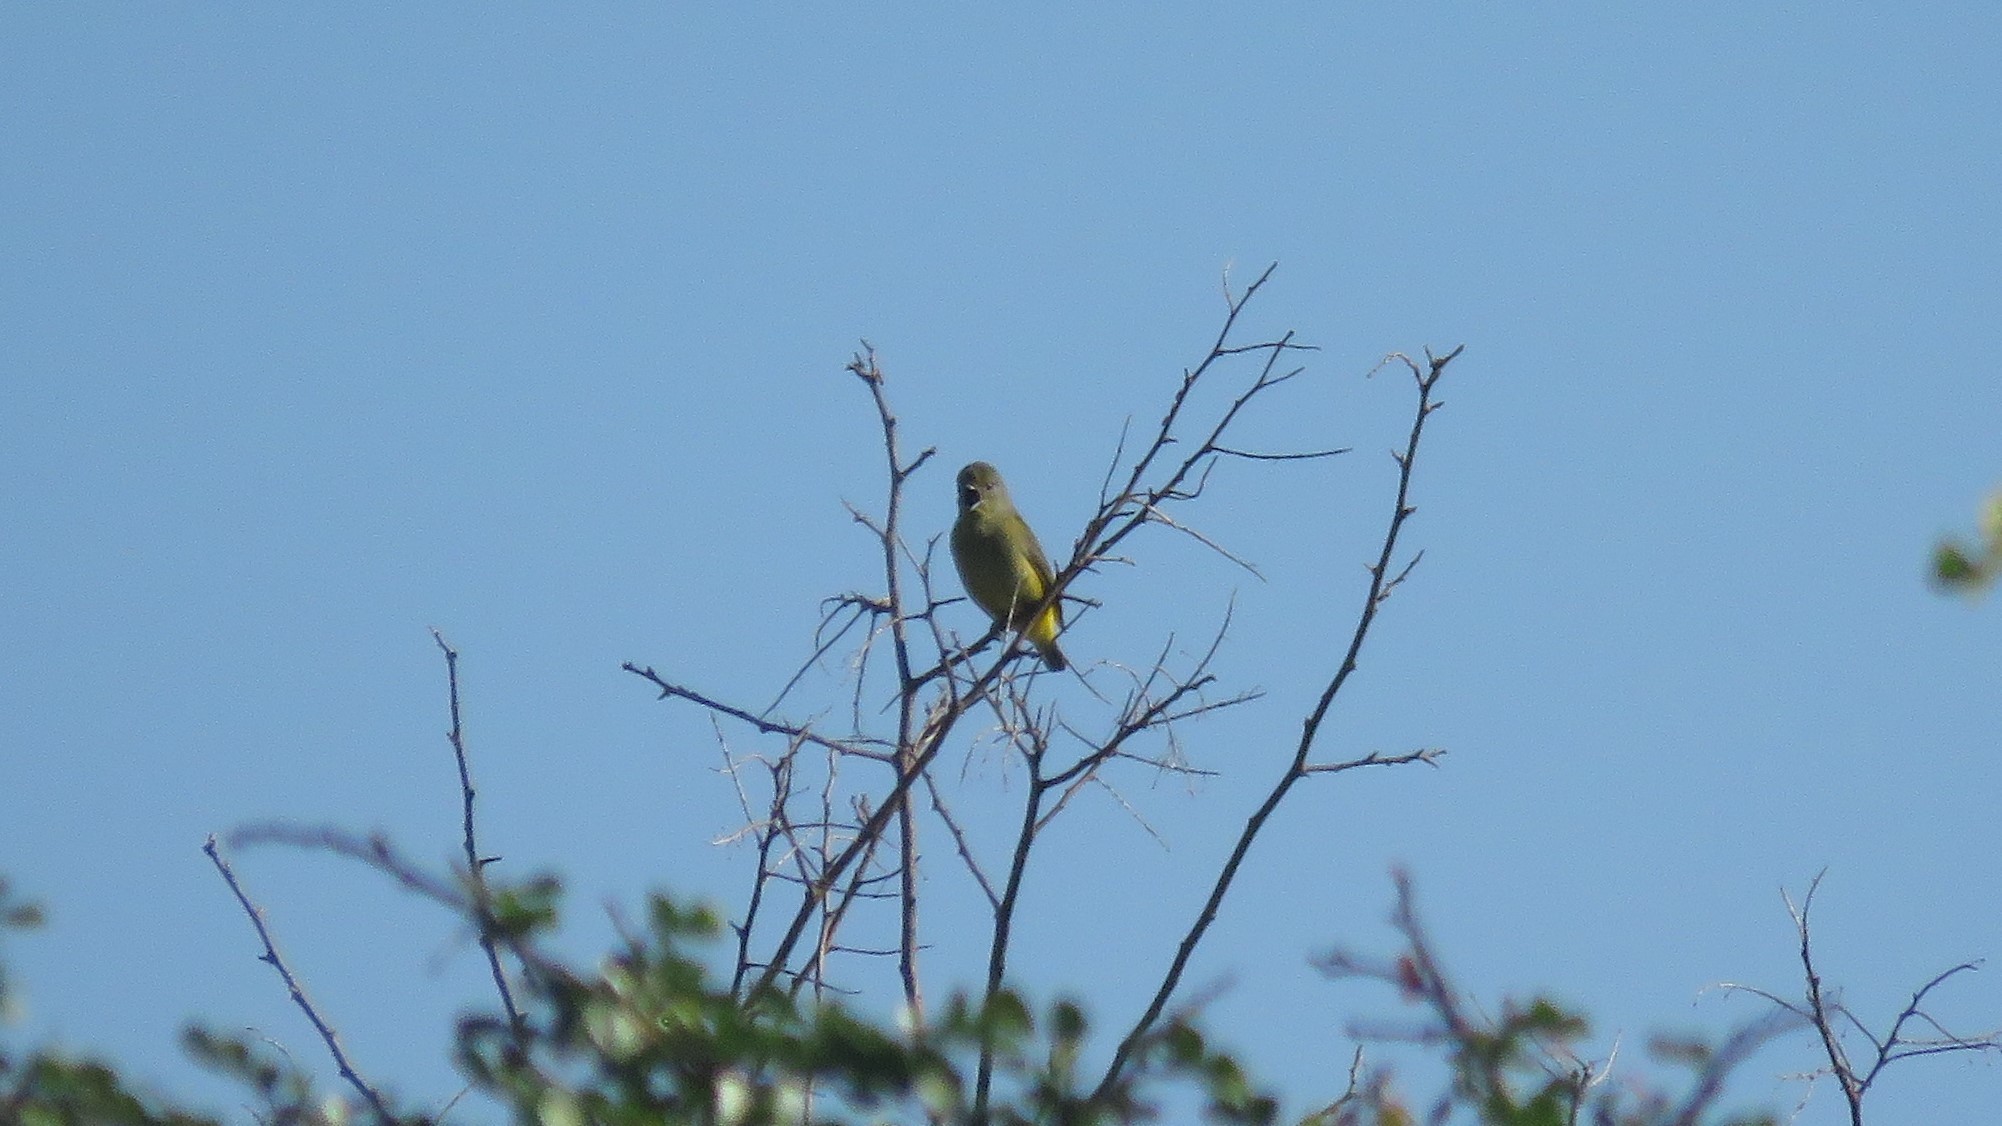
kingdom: Animalia
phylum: Chordata
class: Aves
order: Passeriformes
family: Fringillidae
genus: Euphonia
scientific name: Euphonia affinis
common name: Scrub euphonia
